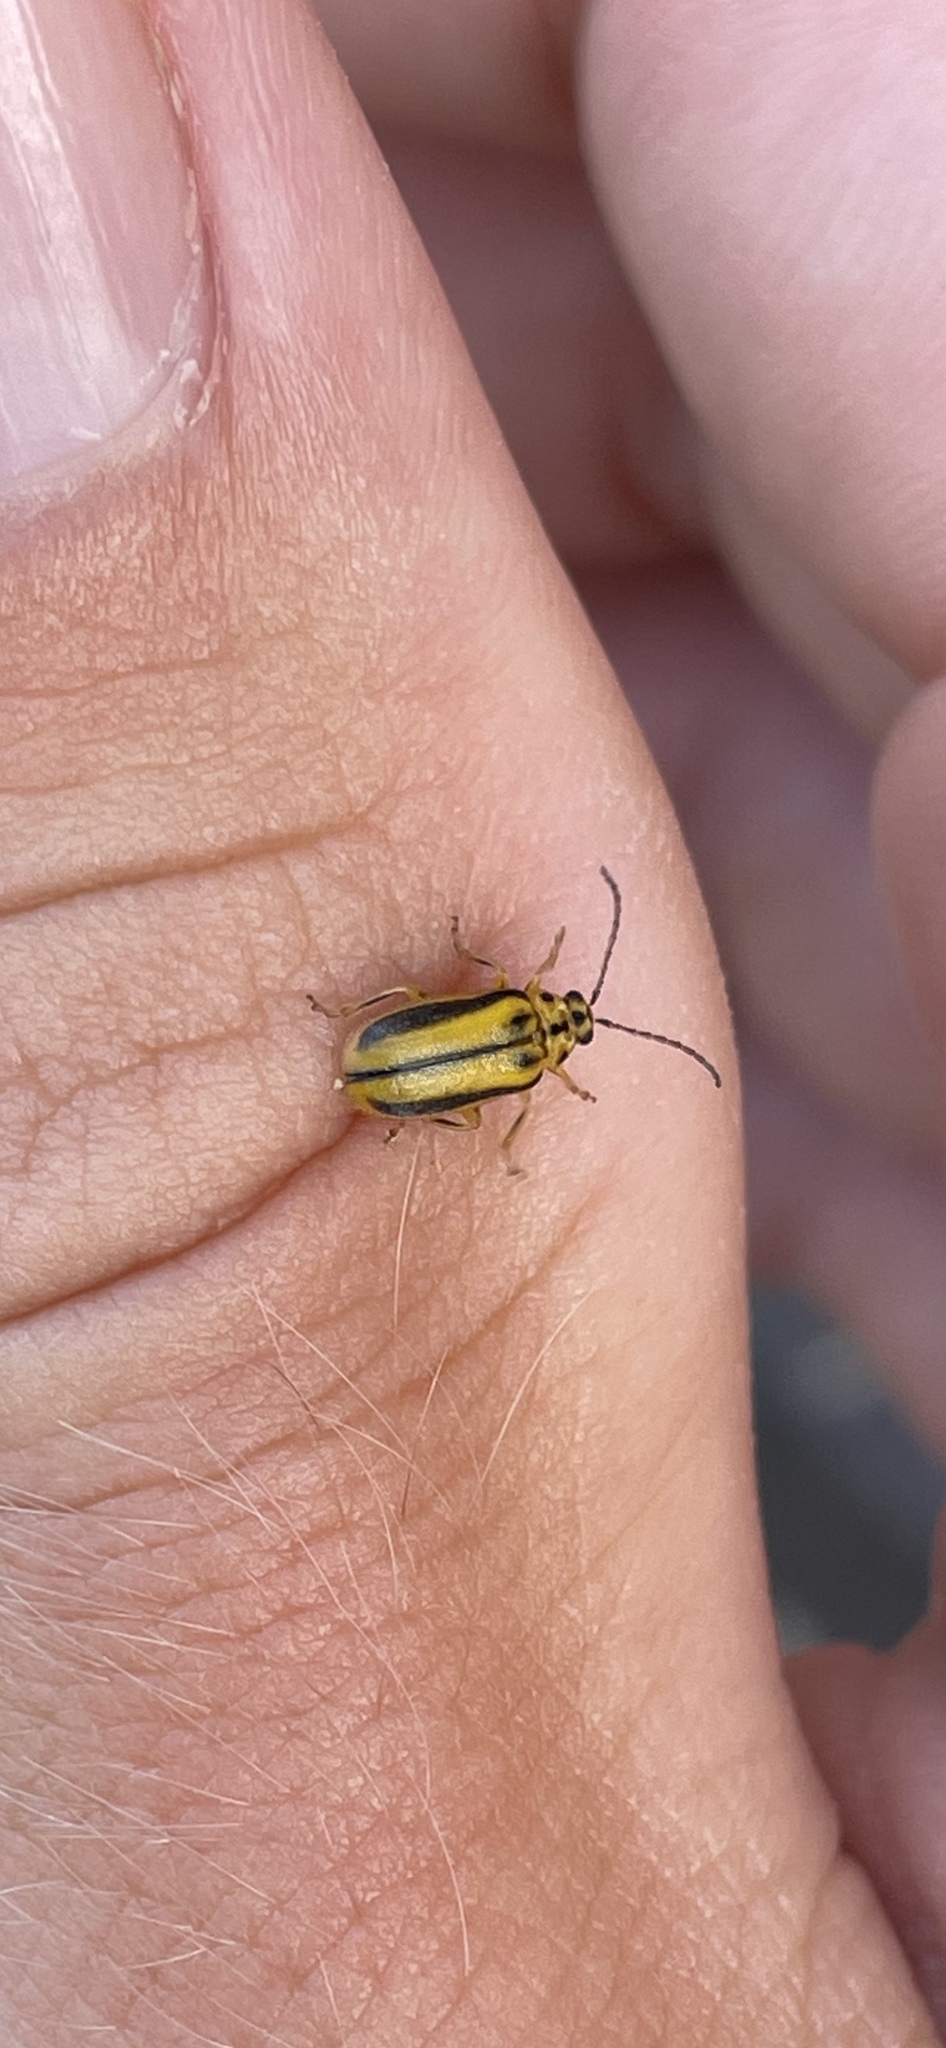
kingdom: Animalia
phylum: Arthropoda
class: Insecta
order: Coleoptera
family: Chrysomelidae
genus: Xanthogaleruca
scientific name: Xanthogaleruca luteola
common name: Elm leaf beetle
